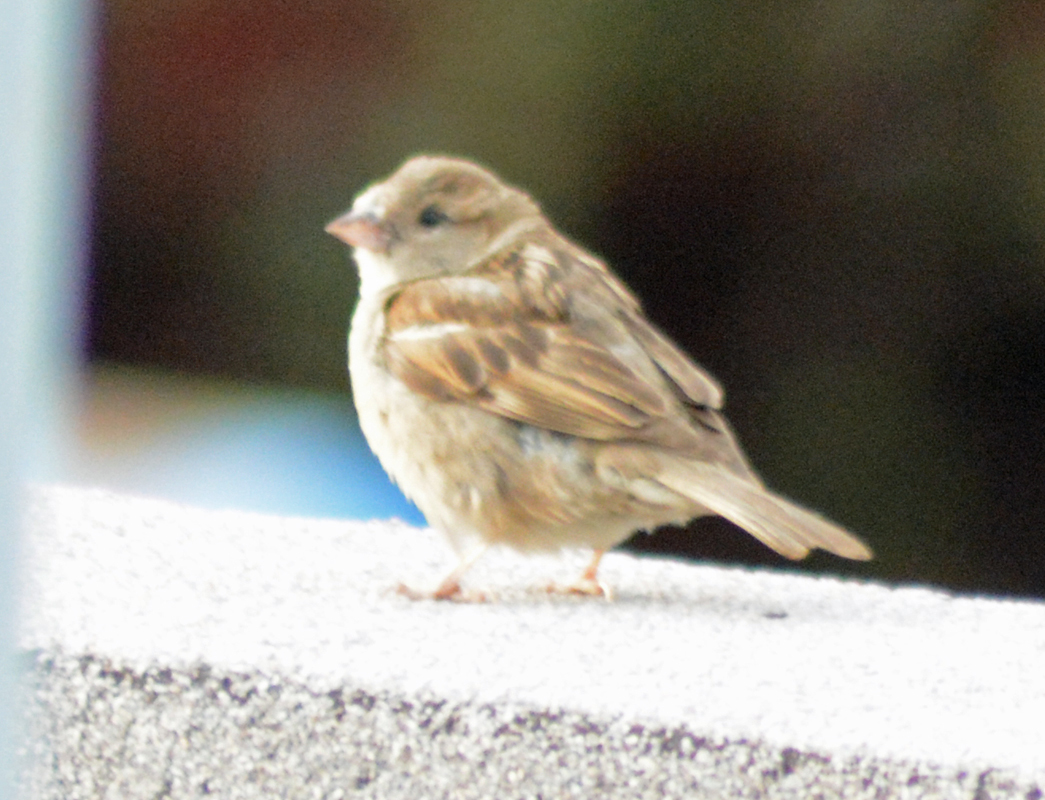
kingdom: Animalia
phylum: Chordata
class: Aves
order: Passeriformes
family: Passeridae
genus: Passer
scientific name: Passer domesticus
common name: House sparrow
